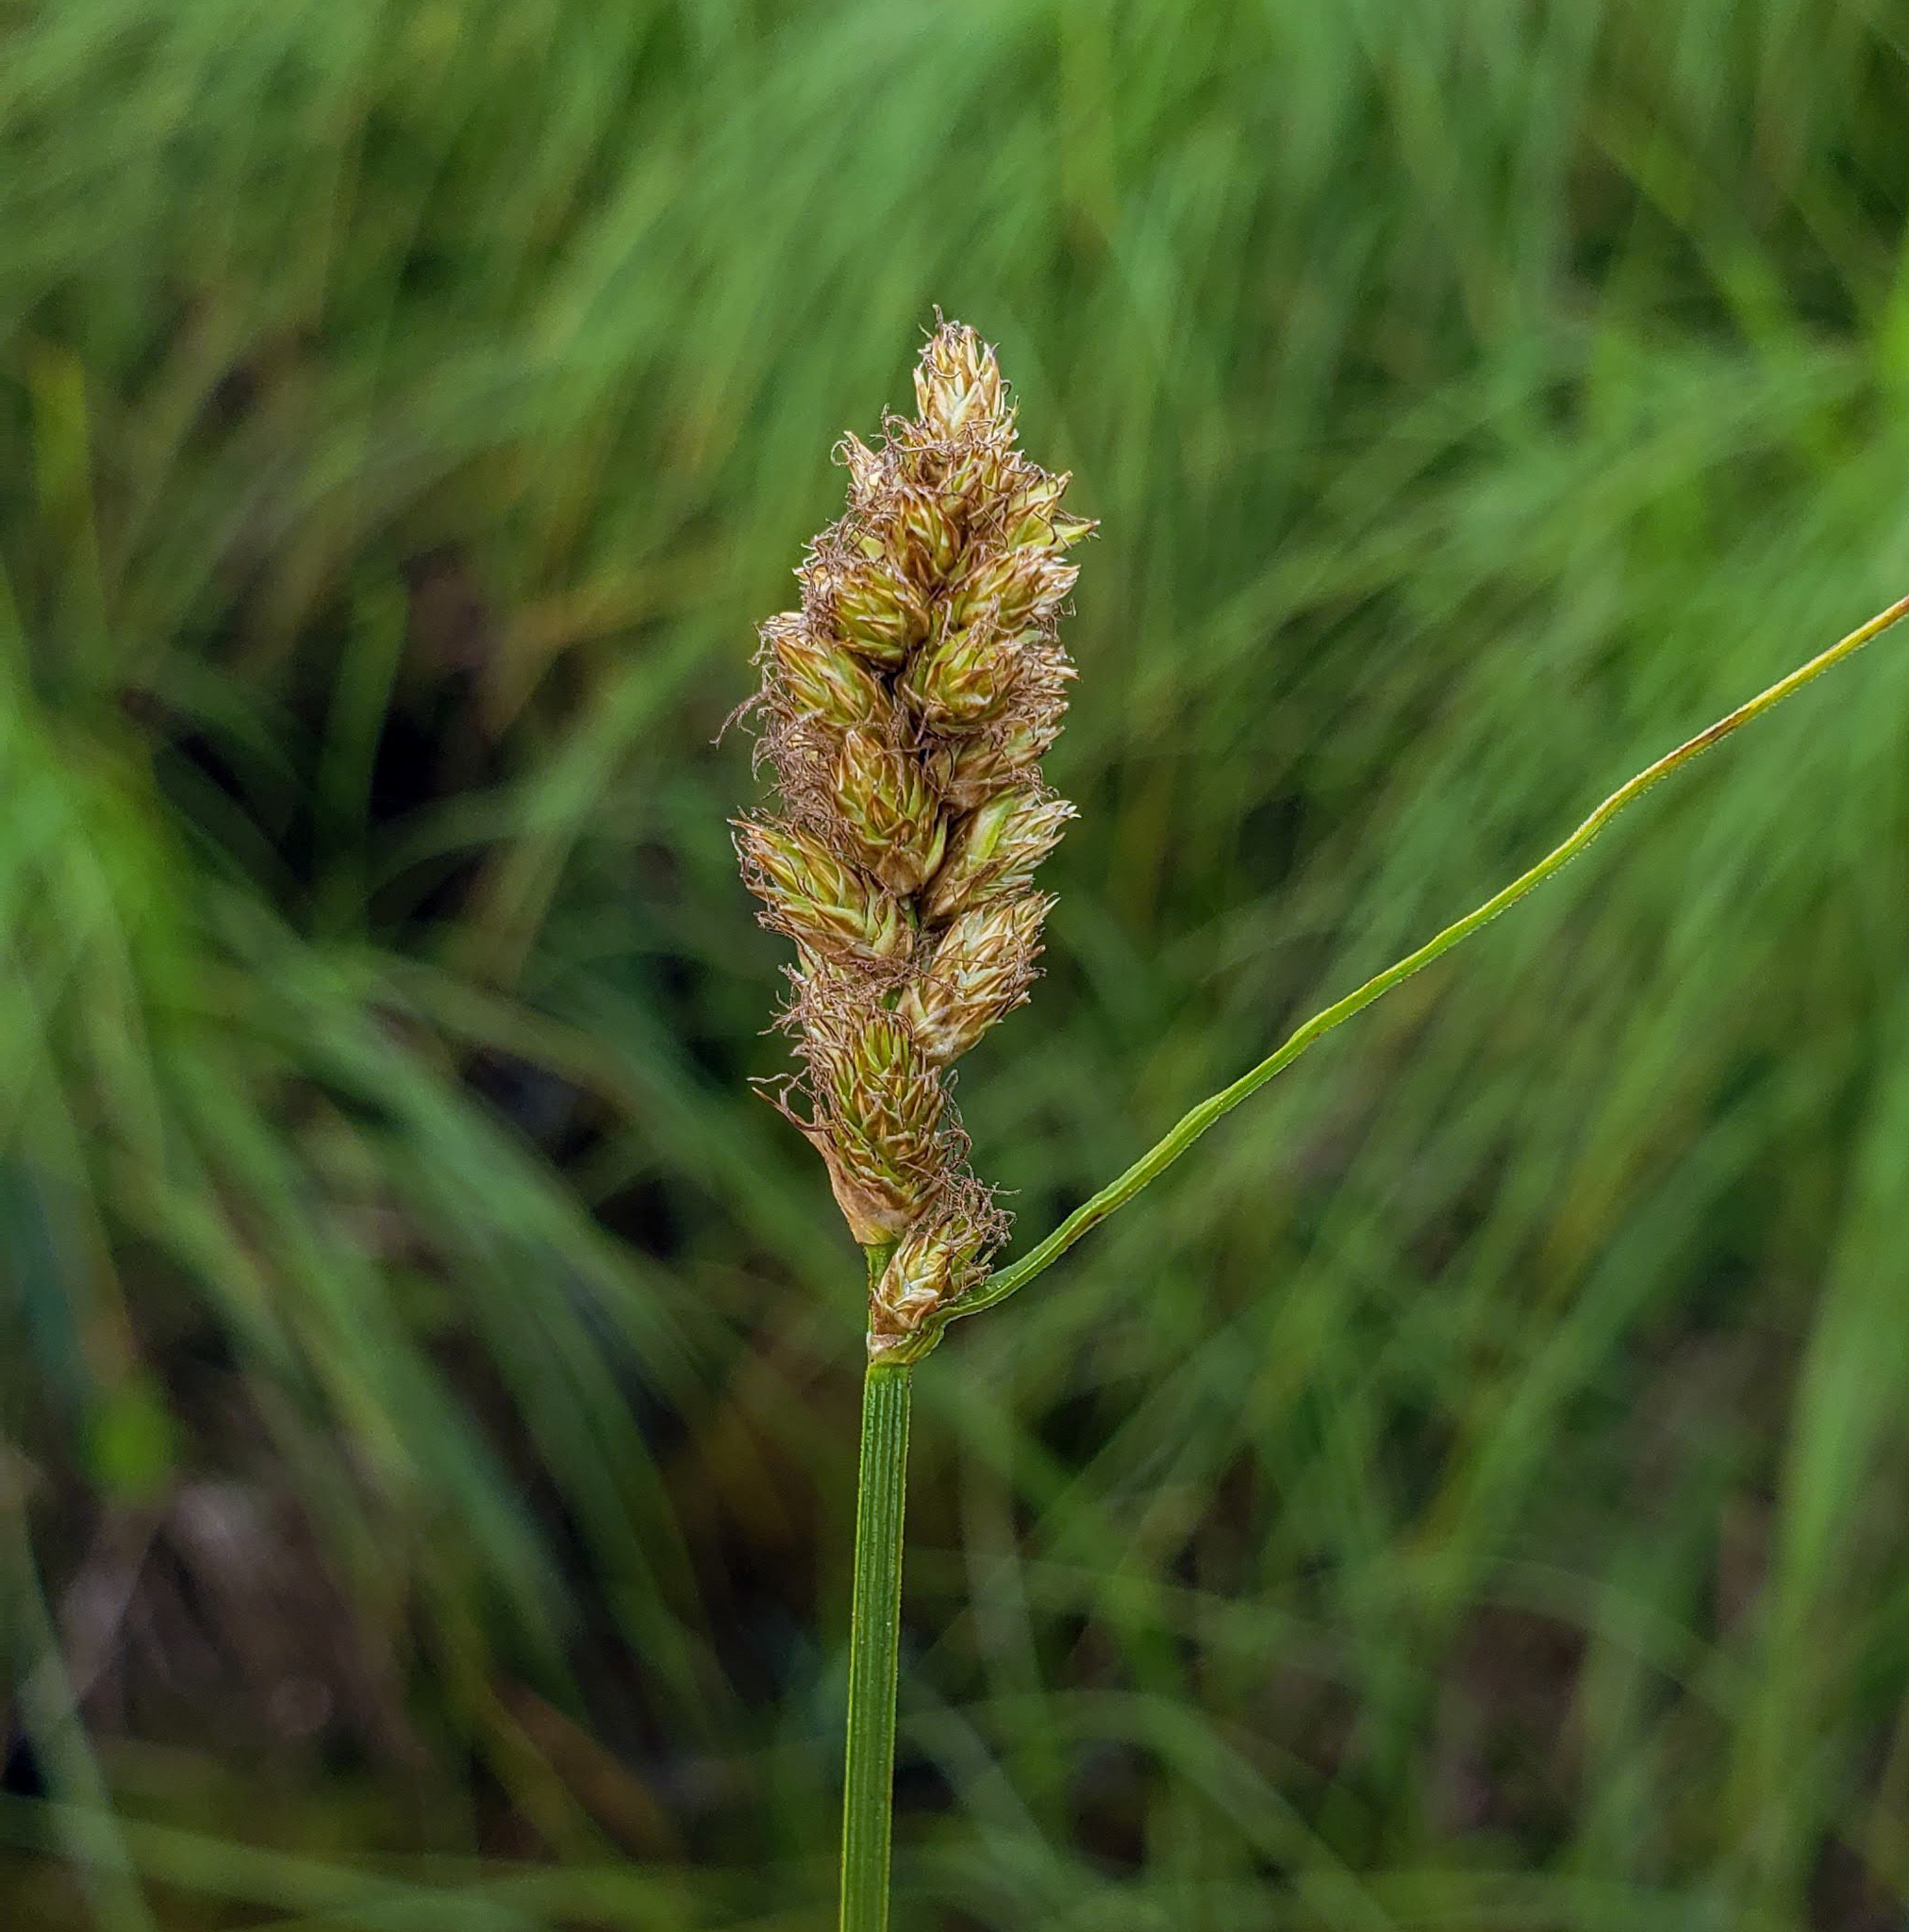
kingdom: Plantae
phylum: Tracheophyta
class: Liliopsida
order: Poales
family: Cyperaceae
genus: Carex
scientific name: Carex scoparia
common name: Broom sedge
